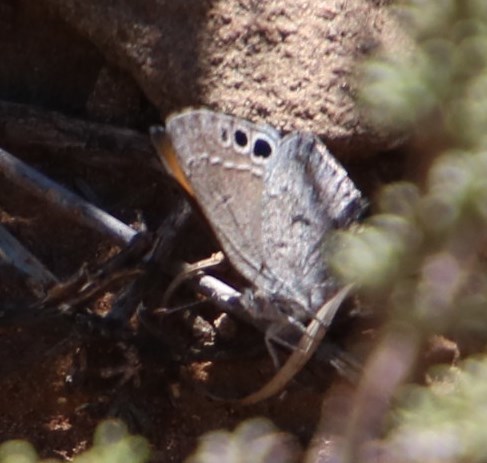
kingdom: Animalia
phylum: Arthropoda
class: Insecta
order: Lepidoptera
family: Lycaenidae
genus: Leptomyrina
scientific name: Leptomyrina lara
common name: Cape black-eye
